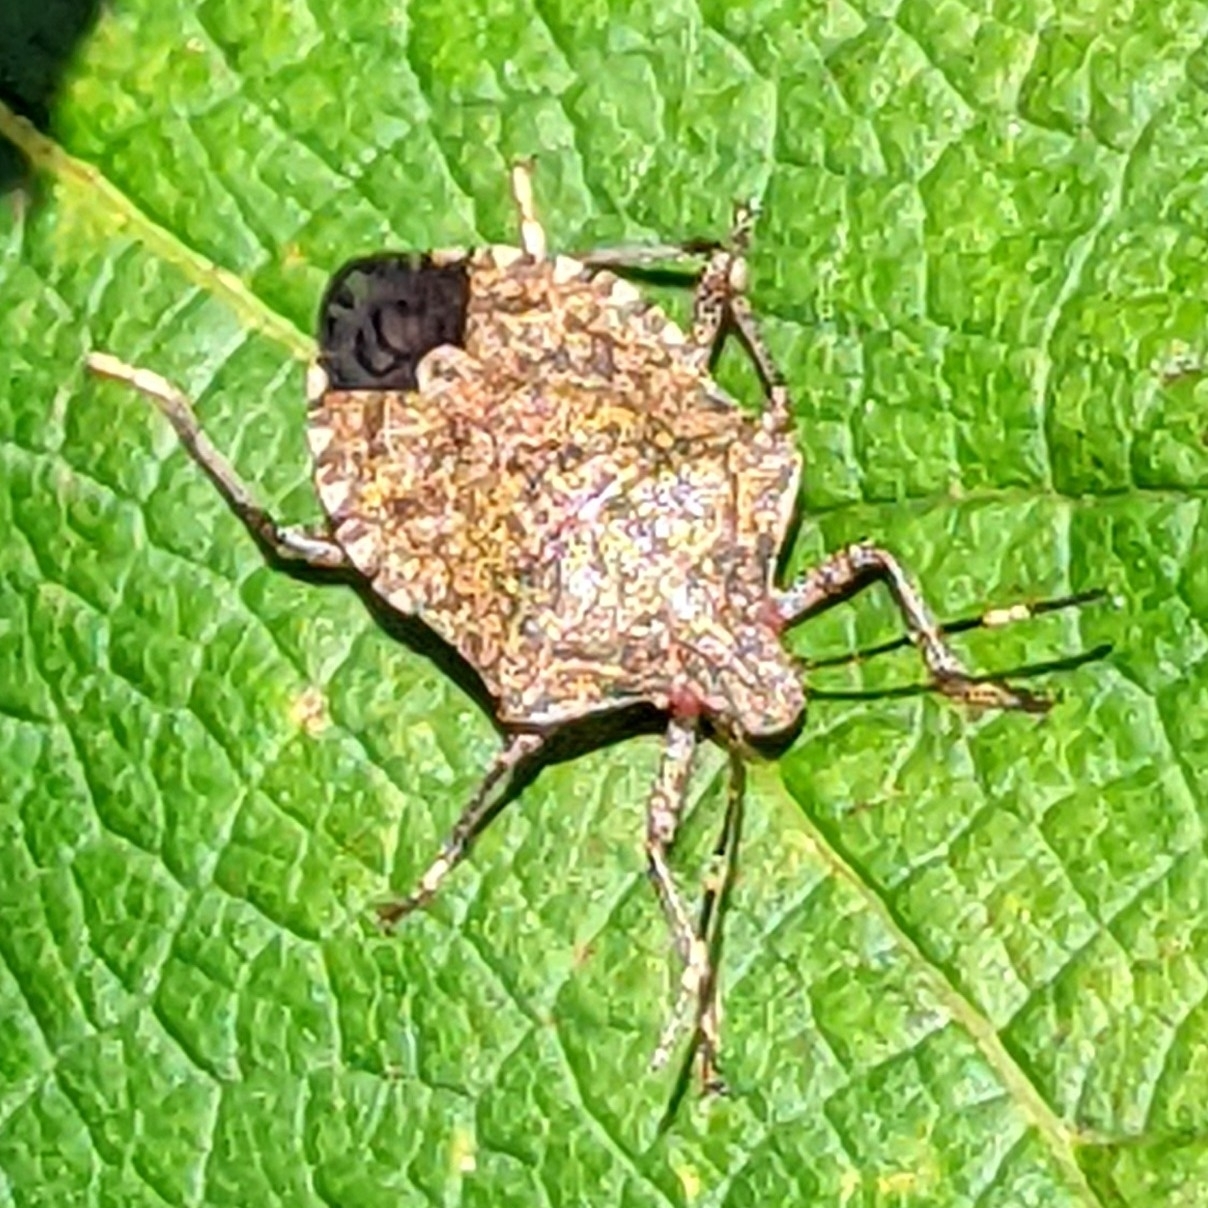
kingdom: Animalia
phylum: Arthropoda
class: Insecta
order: Hemiptera
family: Pentatomidae
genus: Halyomorpha
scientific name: Halyomorpha halys
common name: Brown marmorated stink bug
